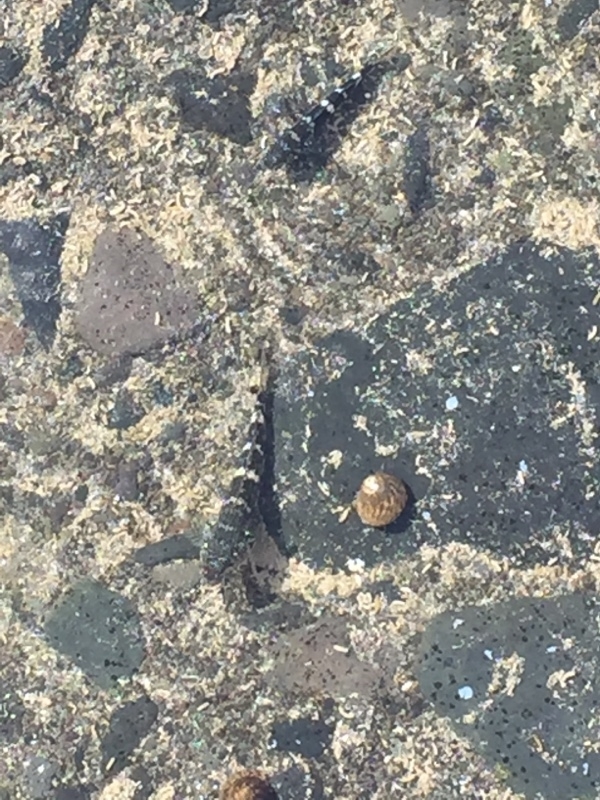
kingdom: Animalia
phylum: Chordata
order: Perciformes
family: Gobiidae
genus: Mauligobius
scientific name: Mauligobius maderensis
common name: Rock goby
